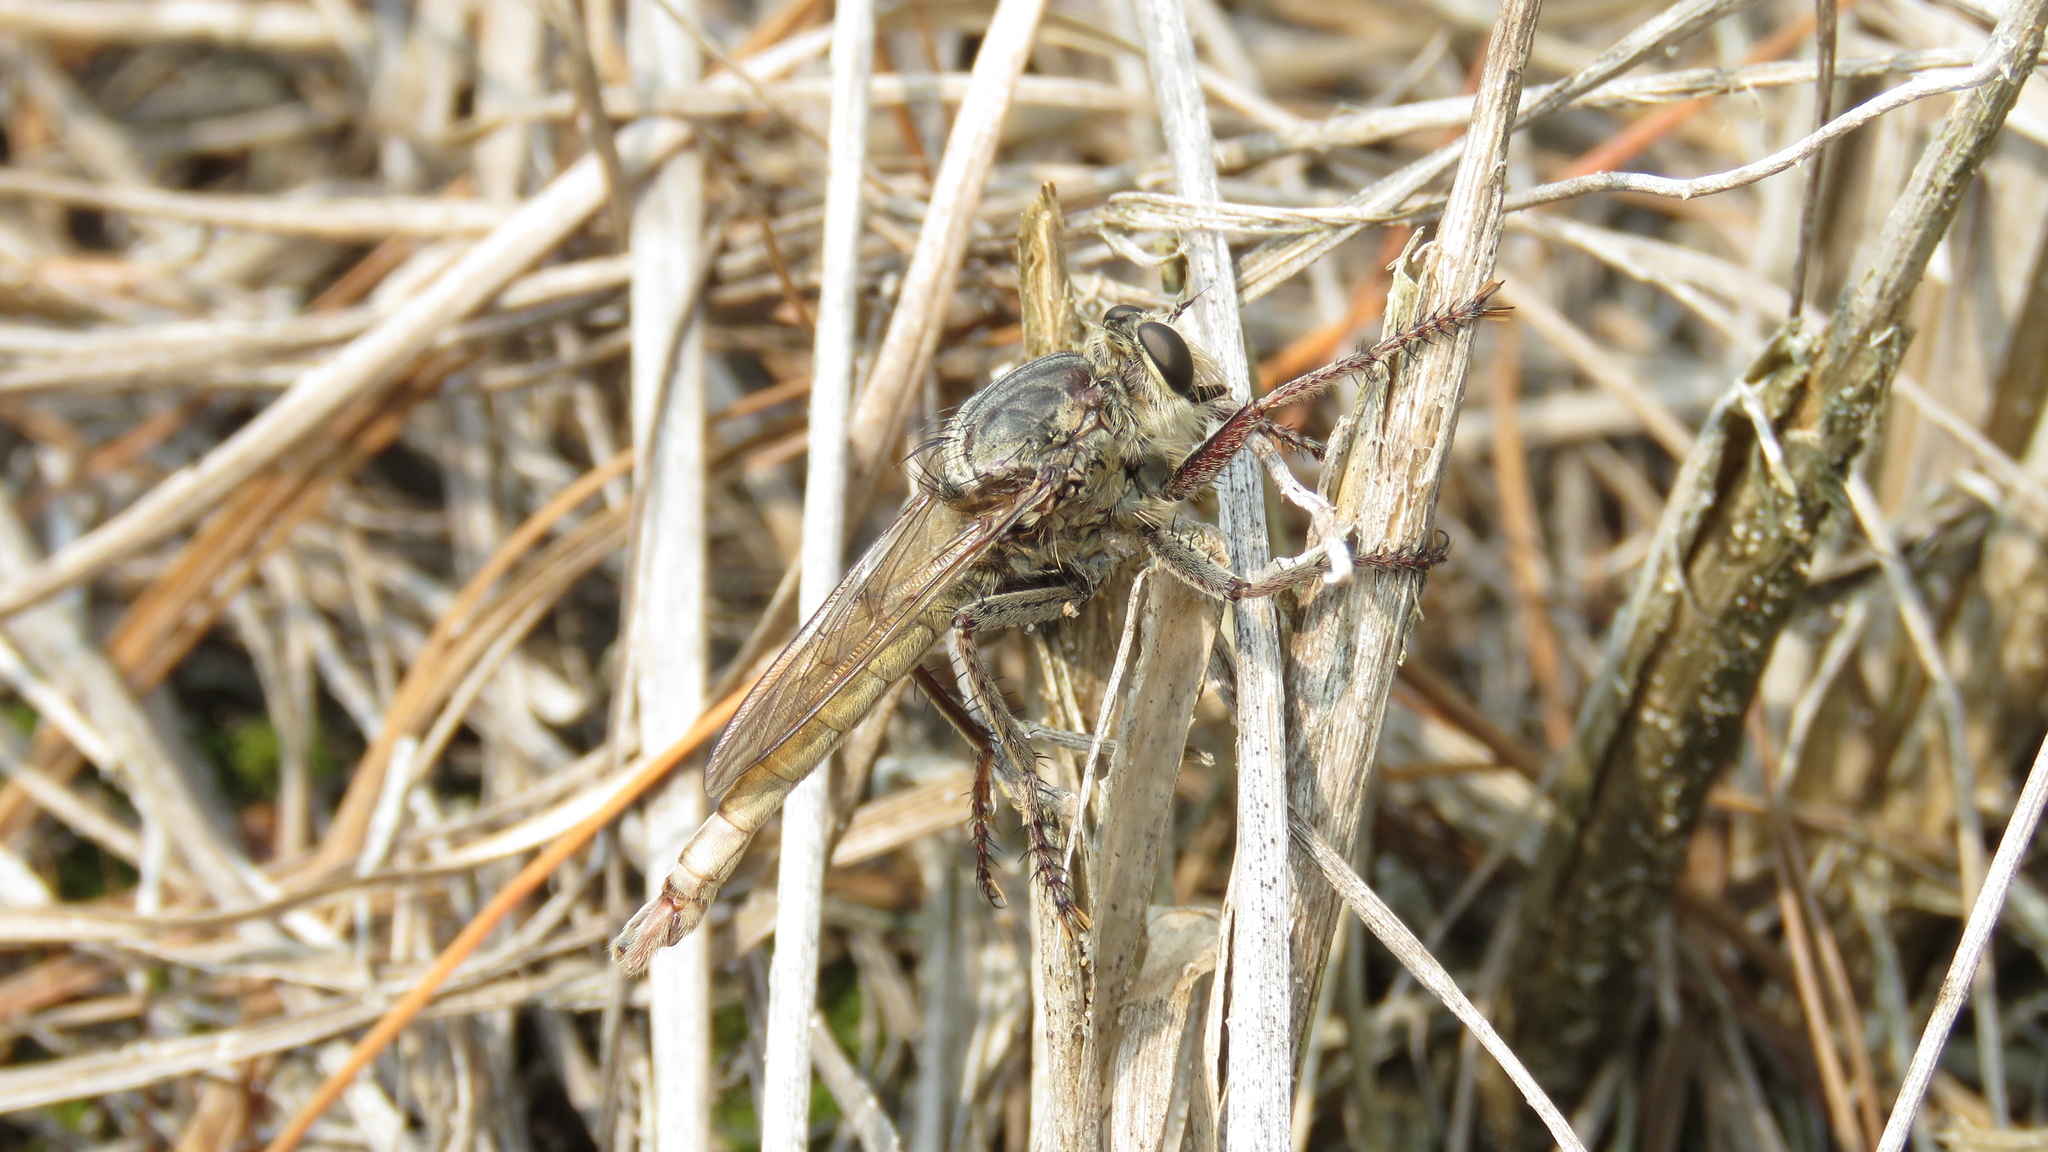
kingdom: Animalia
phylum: Arthropoda
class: Insecta
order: Diptera
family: Asilidae
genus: Proctacanthus
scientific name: Proctacanthus milbertii
